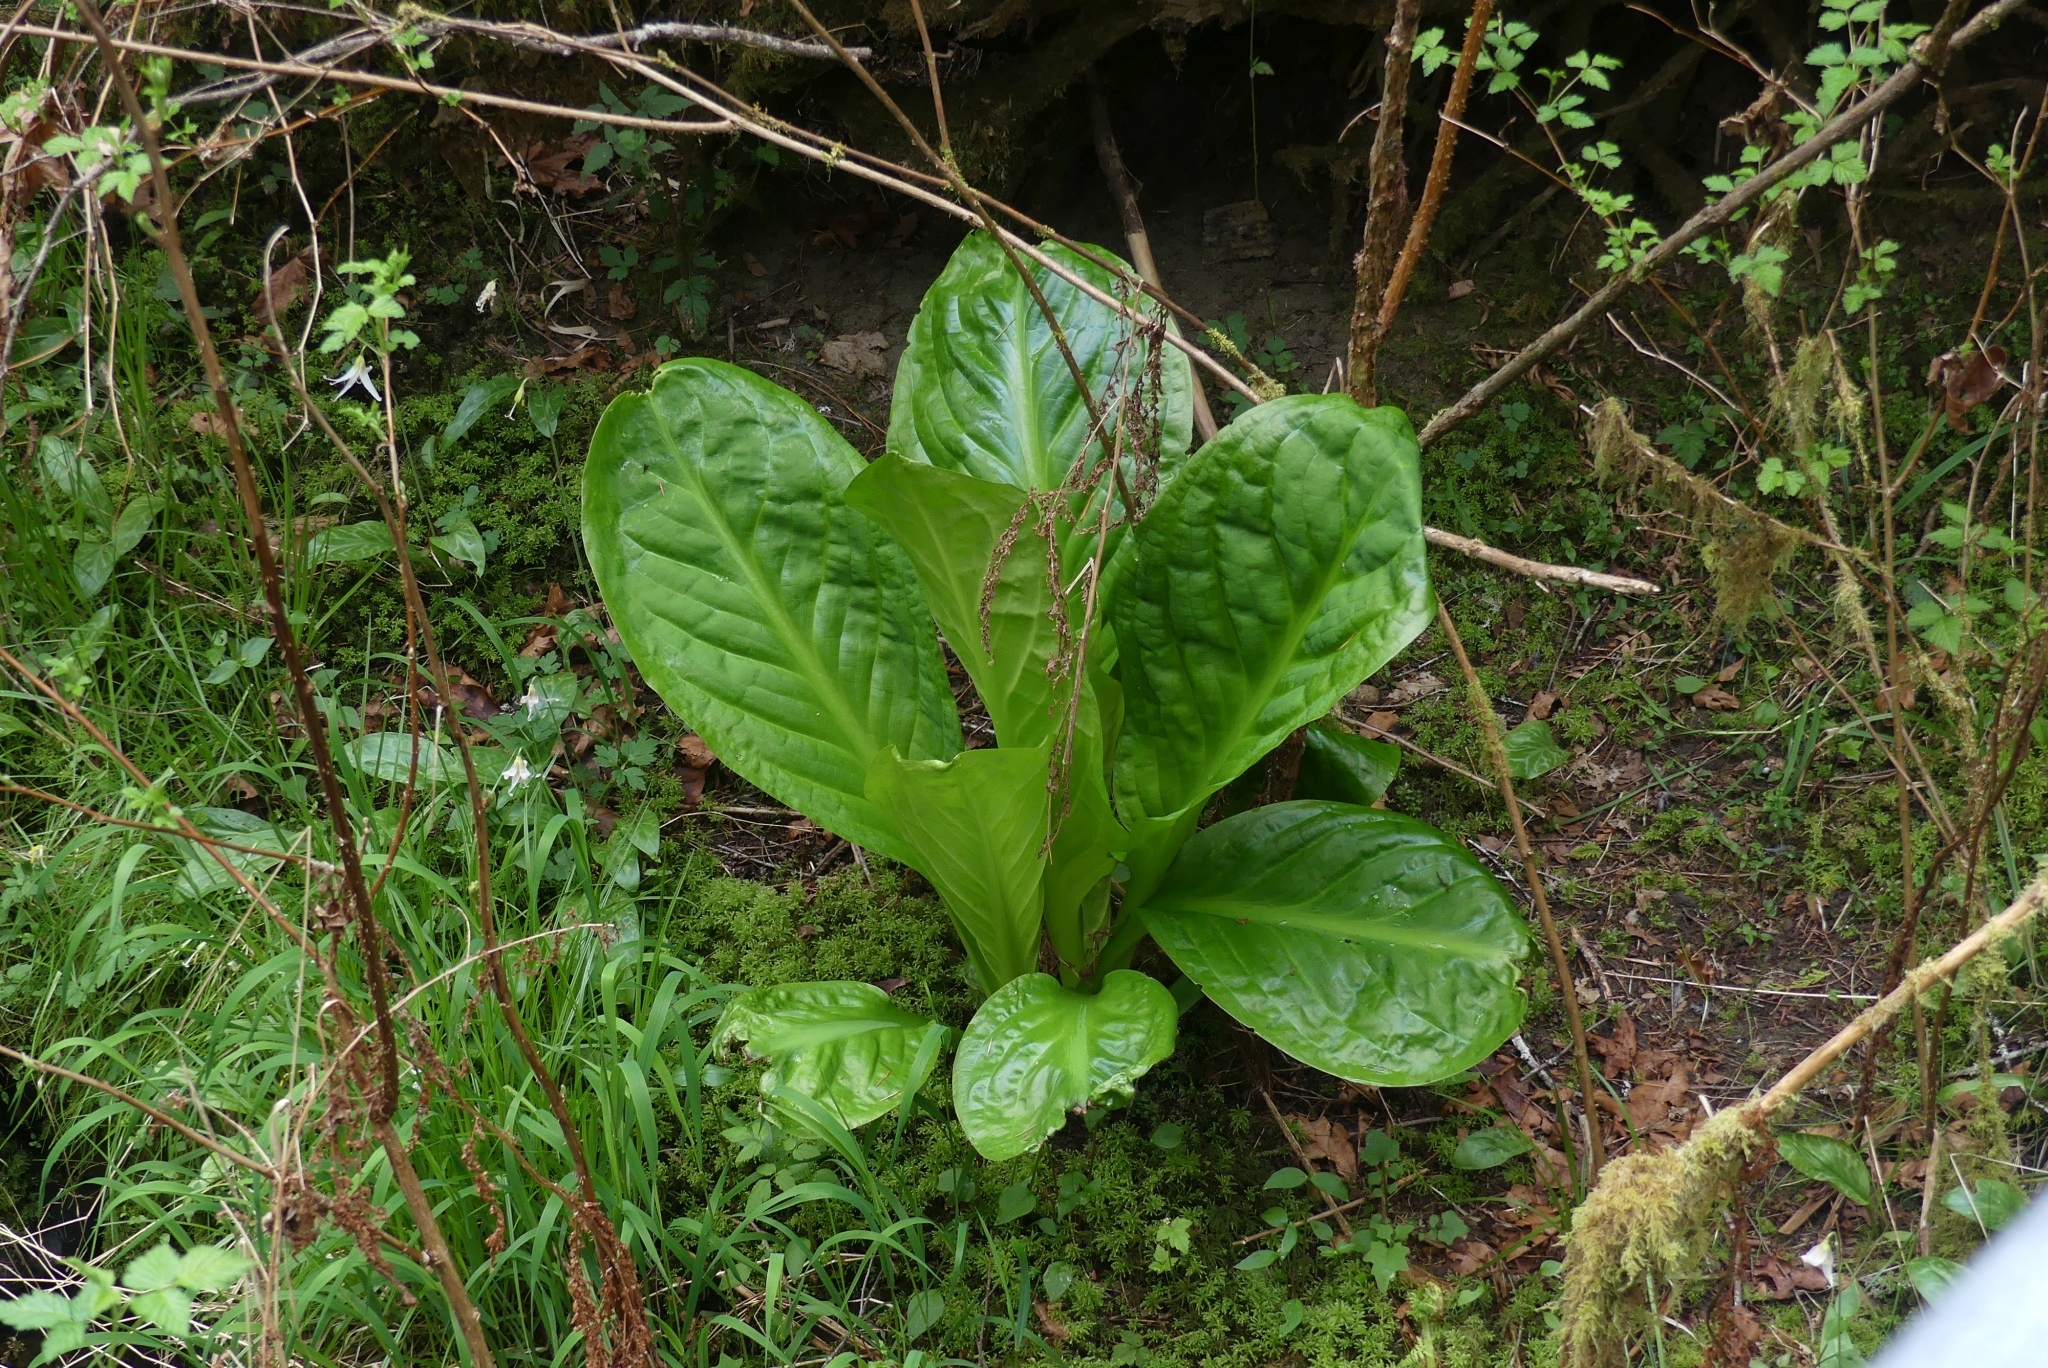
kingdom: Plantae
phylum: Tracheophyta
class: Liliopsida
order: Alismatales
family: Araceae
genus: Lysichiton
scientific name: Lysichiton americanus
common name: American skunk cabbage
